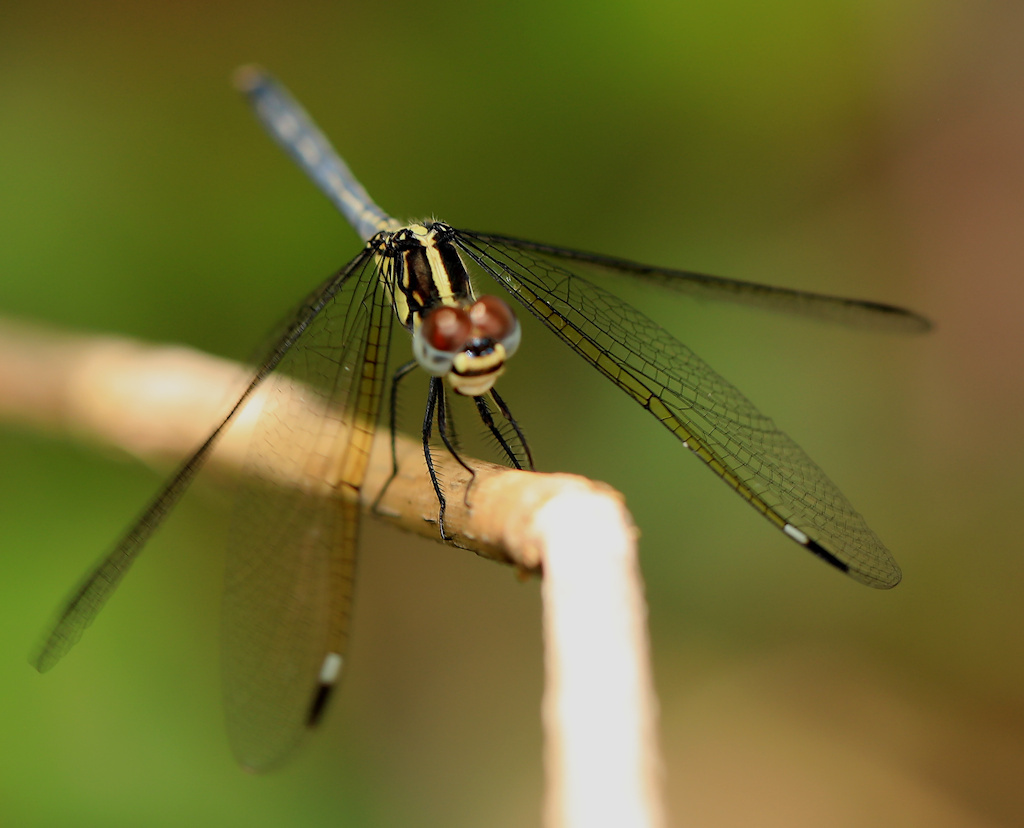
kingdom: Animalia
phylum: Arthropoda
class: Insecta
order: Odonata
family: Libellulidae
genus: Hemistigma
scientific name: Hemistigma albipunctum
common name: African pied-spot
